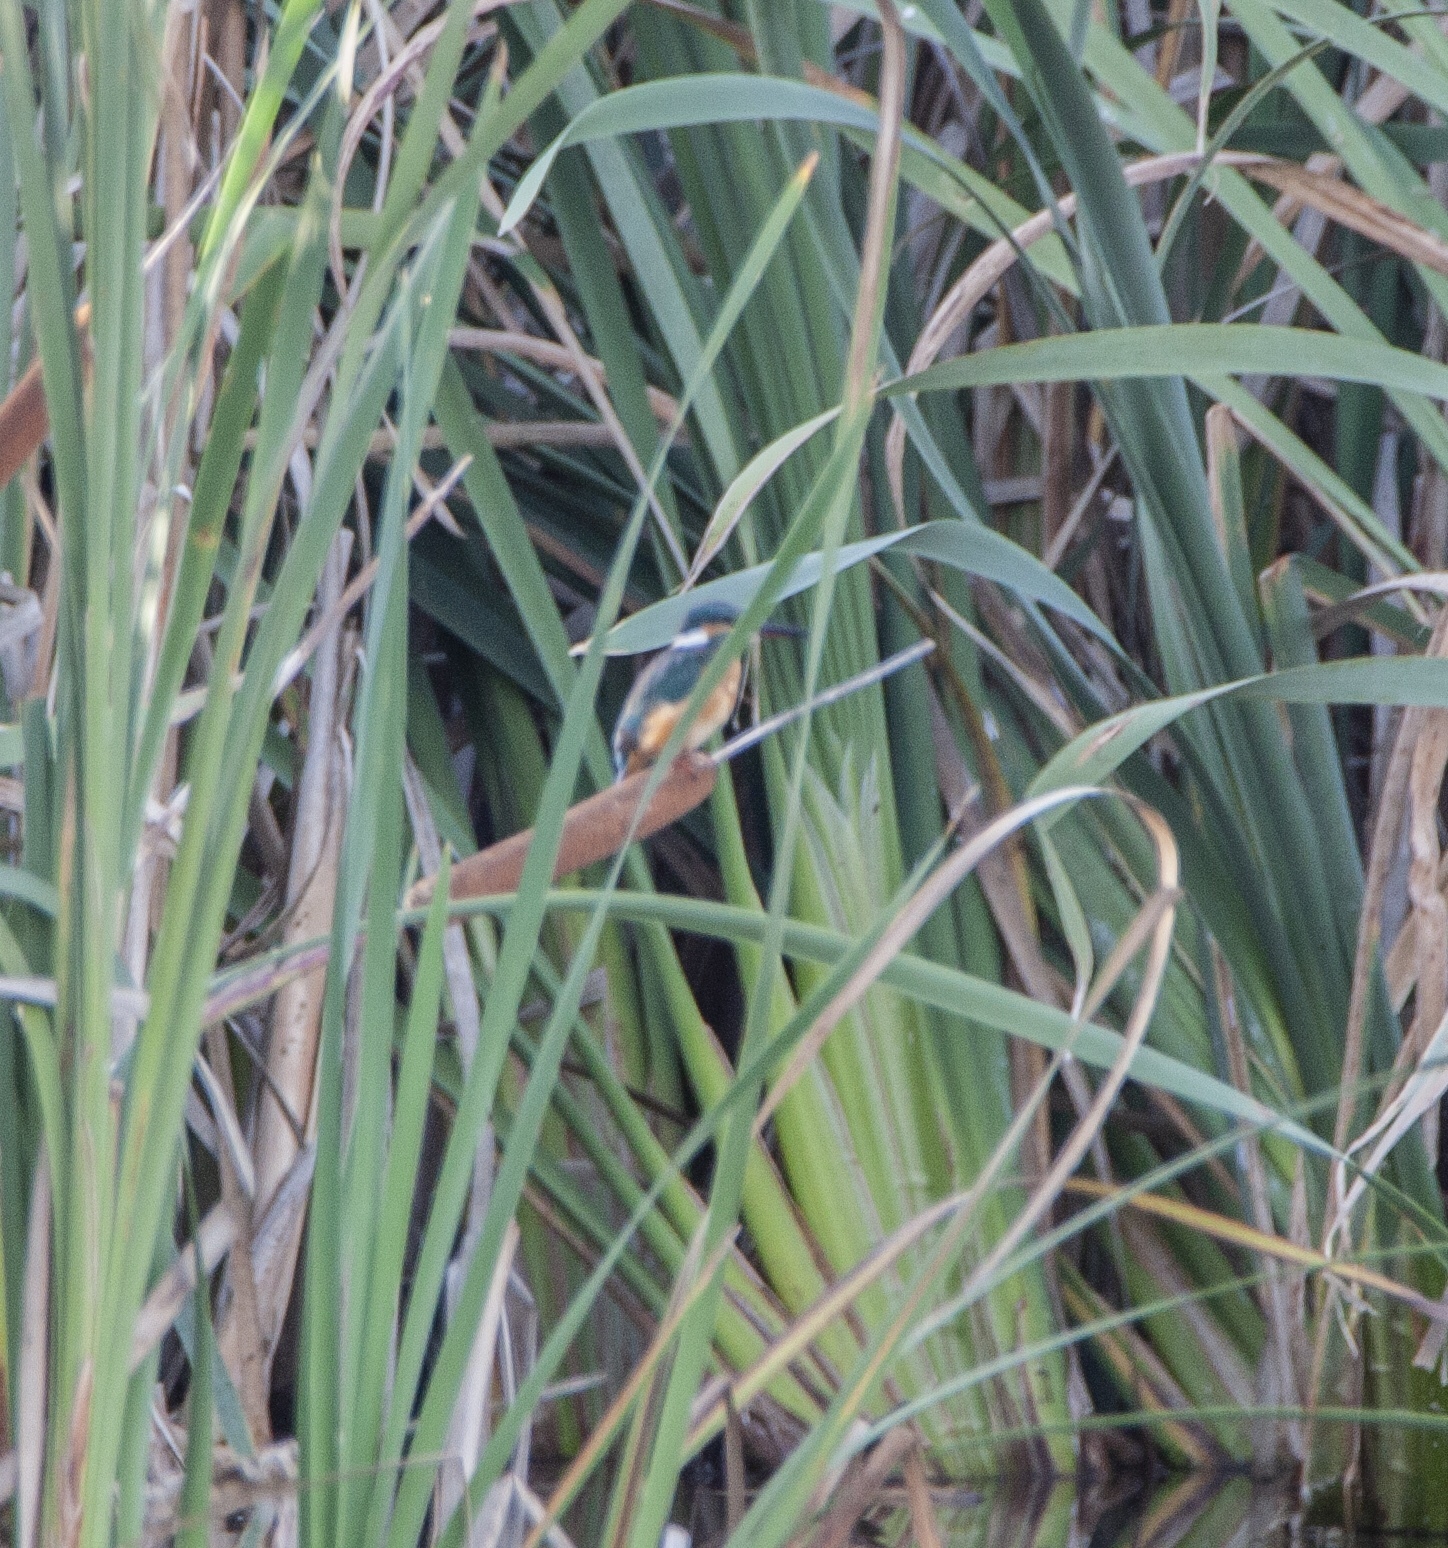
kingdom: Animalia
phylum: Chordata
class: Aves
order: Coraciiformes
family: Alcedinidae
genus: Alcedo
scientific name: Alcedo atthis
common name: Common kingfisher
